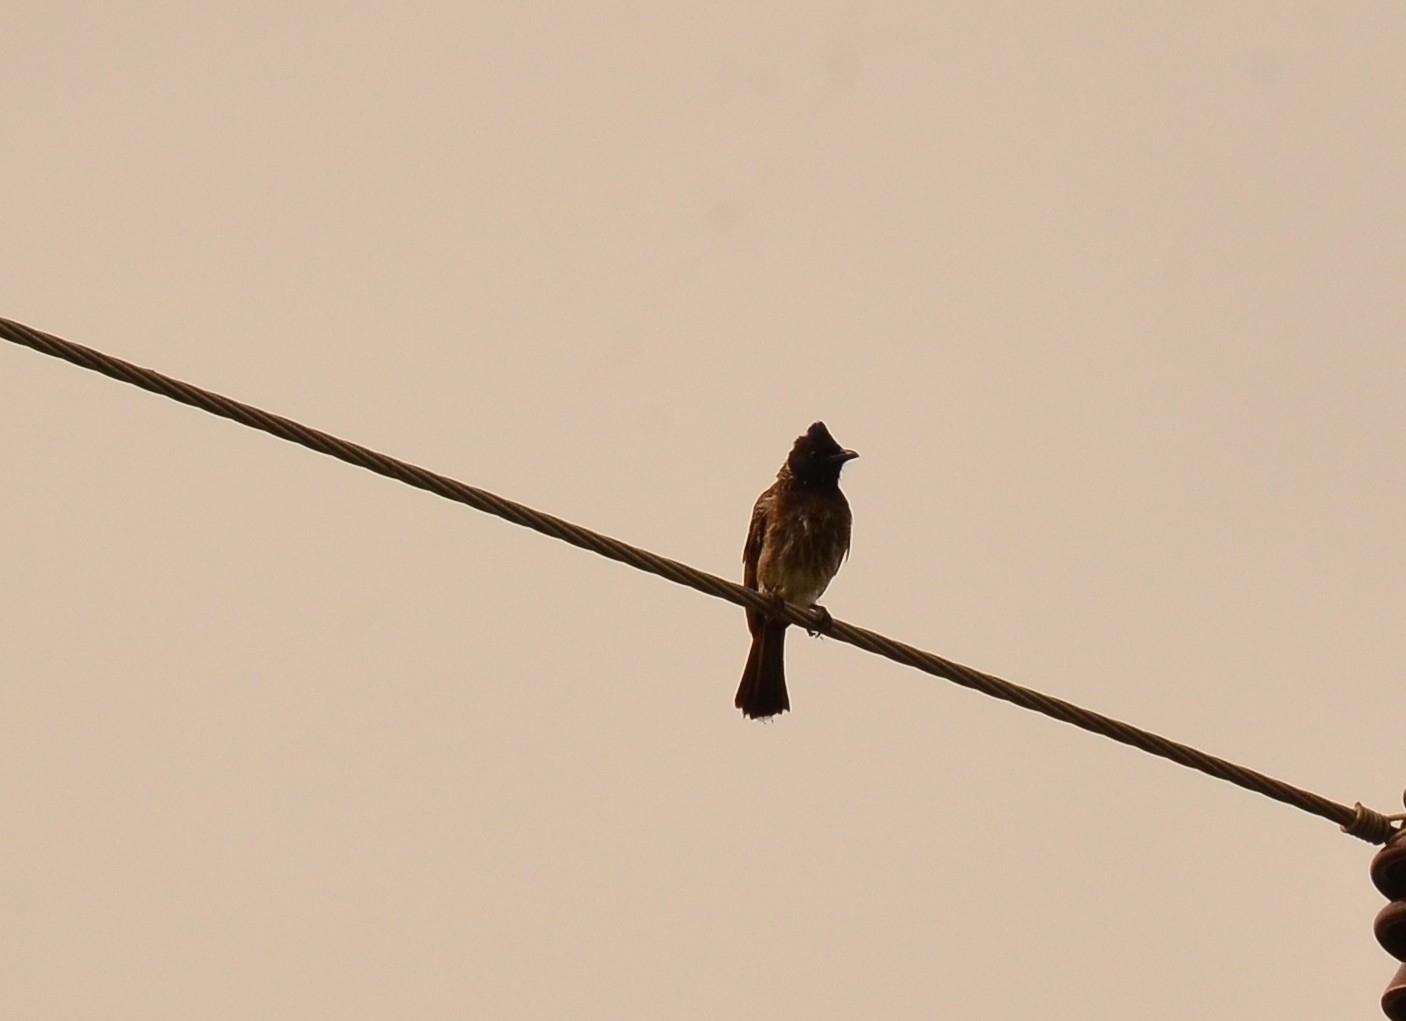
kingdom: Animalia
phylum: Chordata
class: Aves
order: Passeriformes
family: Pycnonotidae
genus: Pycnonotus
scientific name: Pycnonotus cafer
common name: Red-vented bulbul
